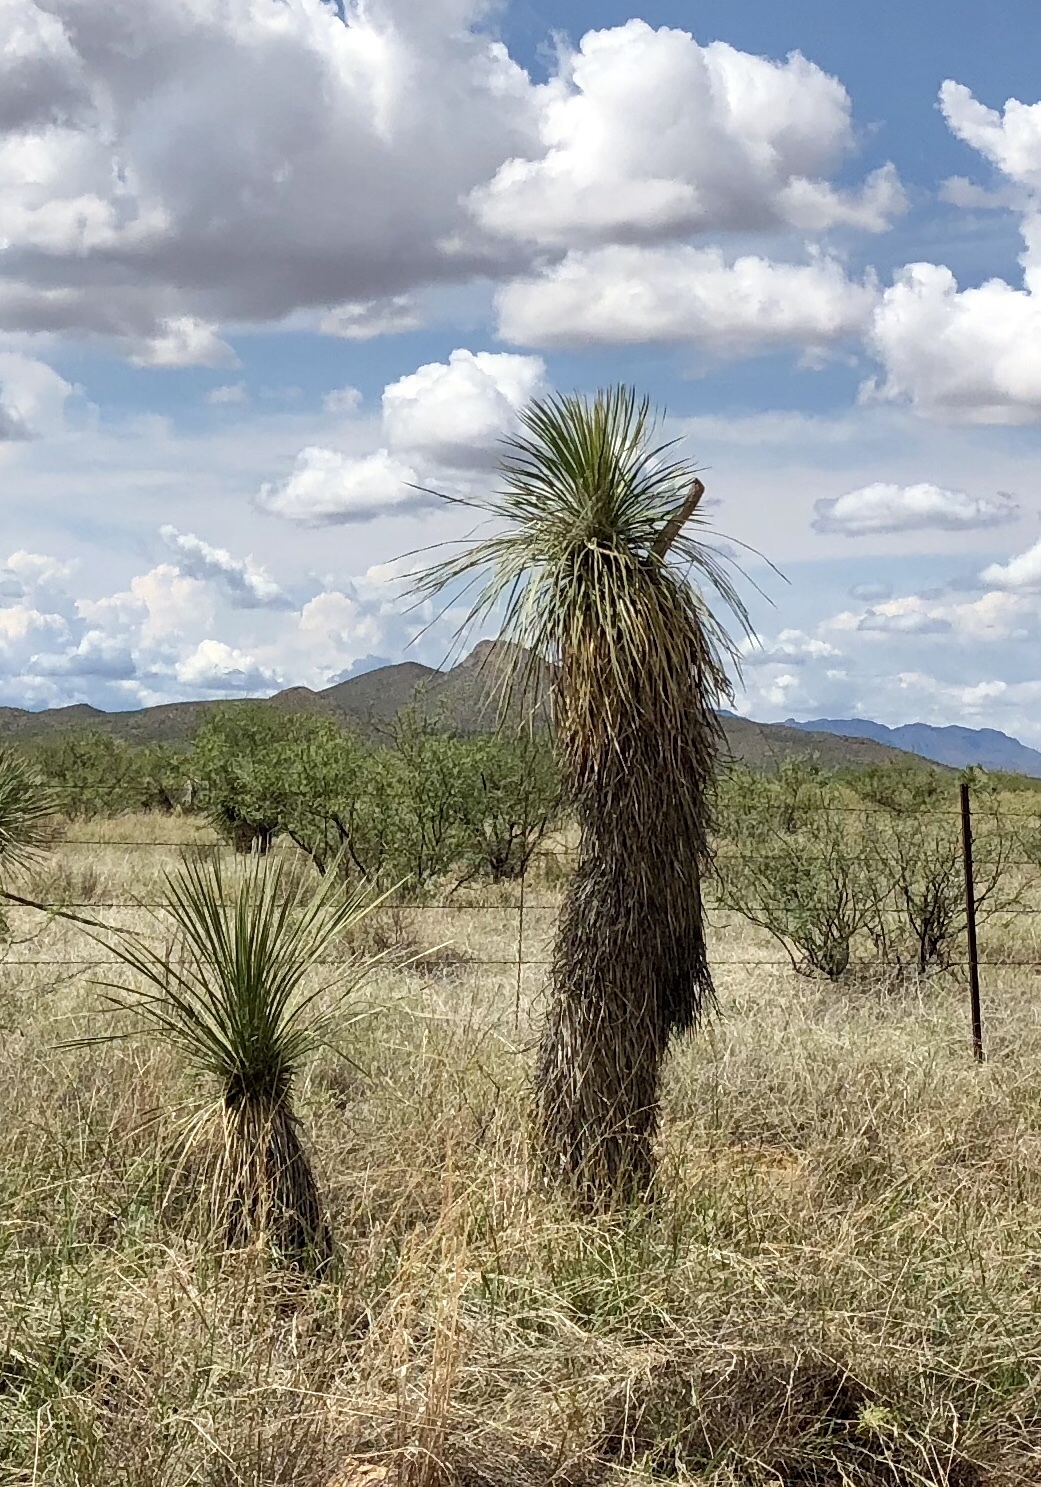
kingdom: Plantae
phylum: Tracheophyta
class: Liliopsida
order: Asparagales
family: Asparagaceae
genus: Yucca
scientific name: Yucca elata
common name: Palmella
